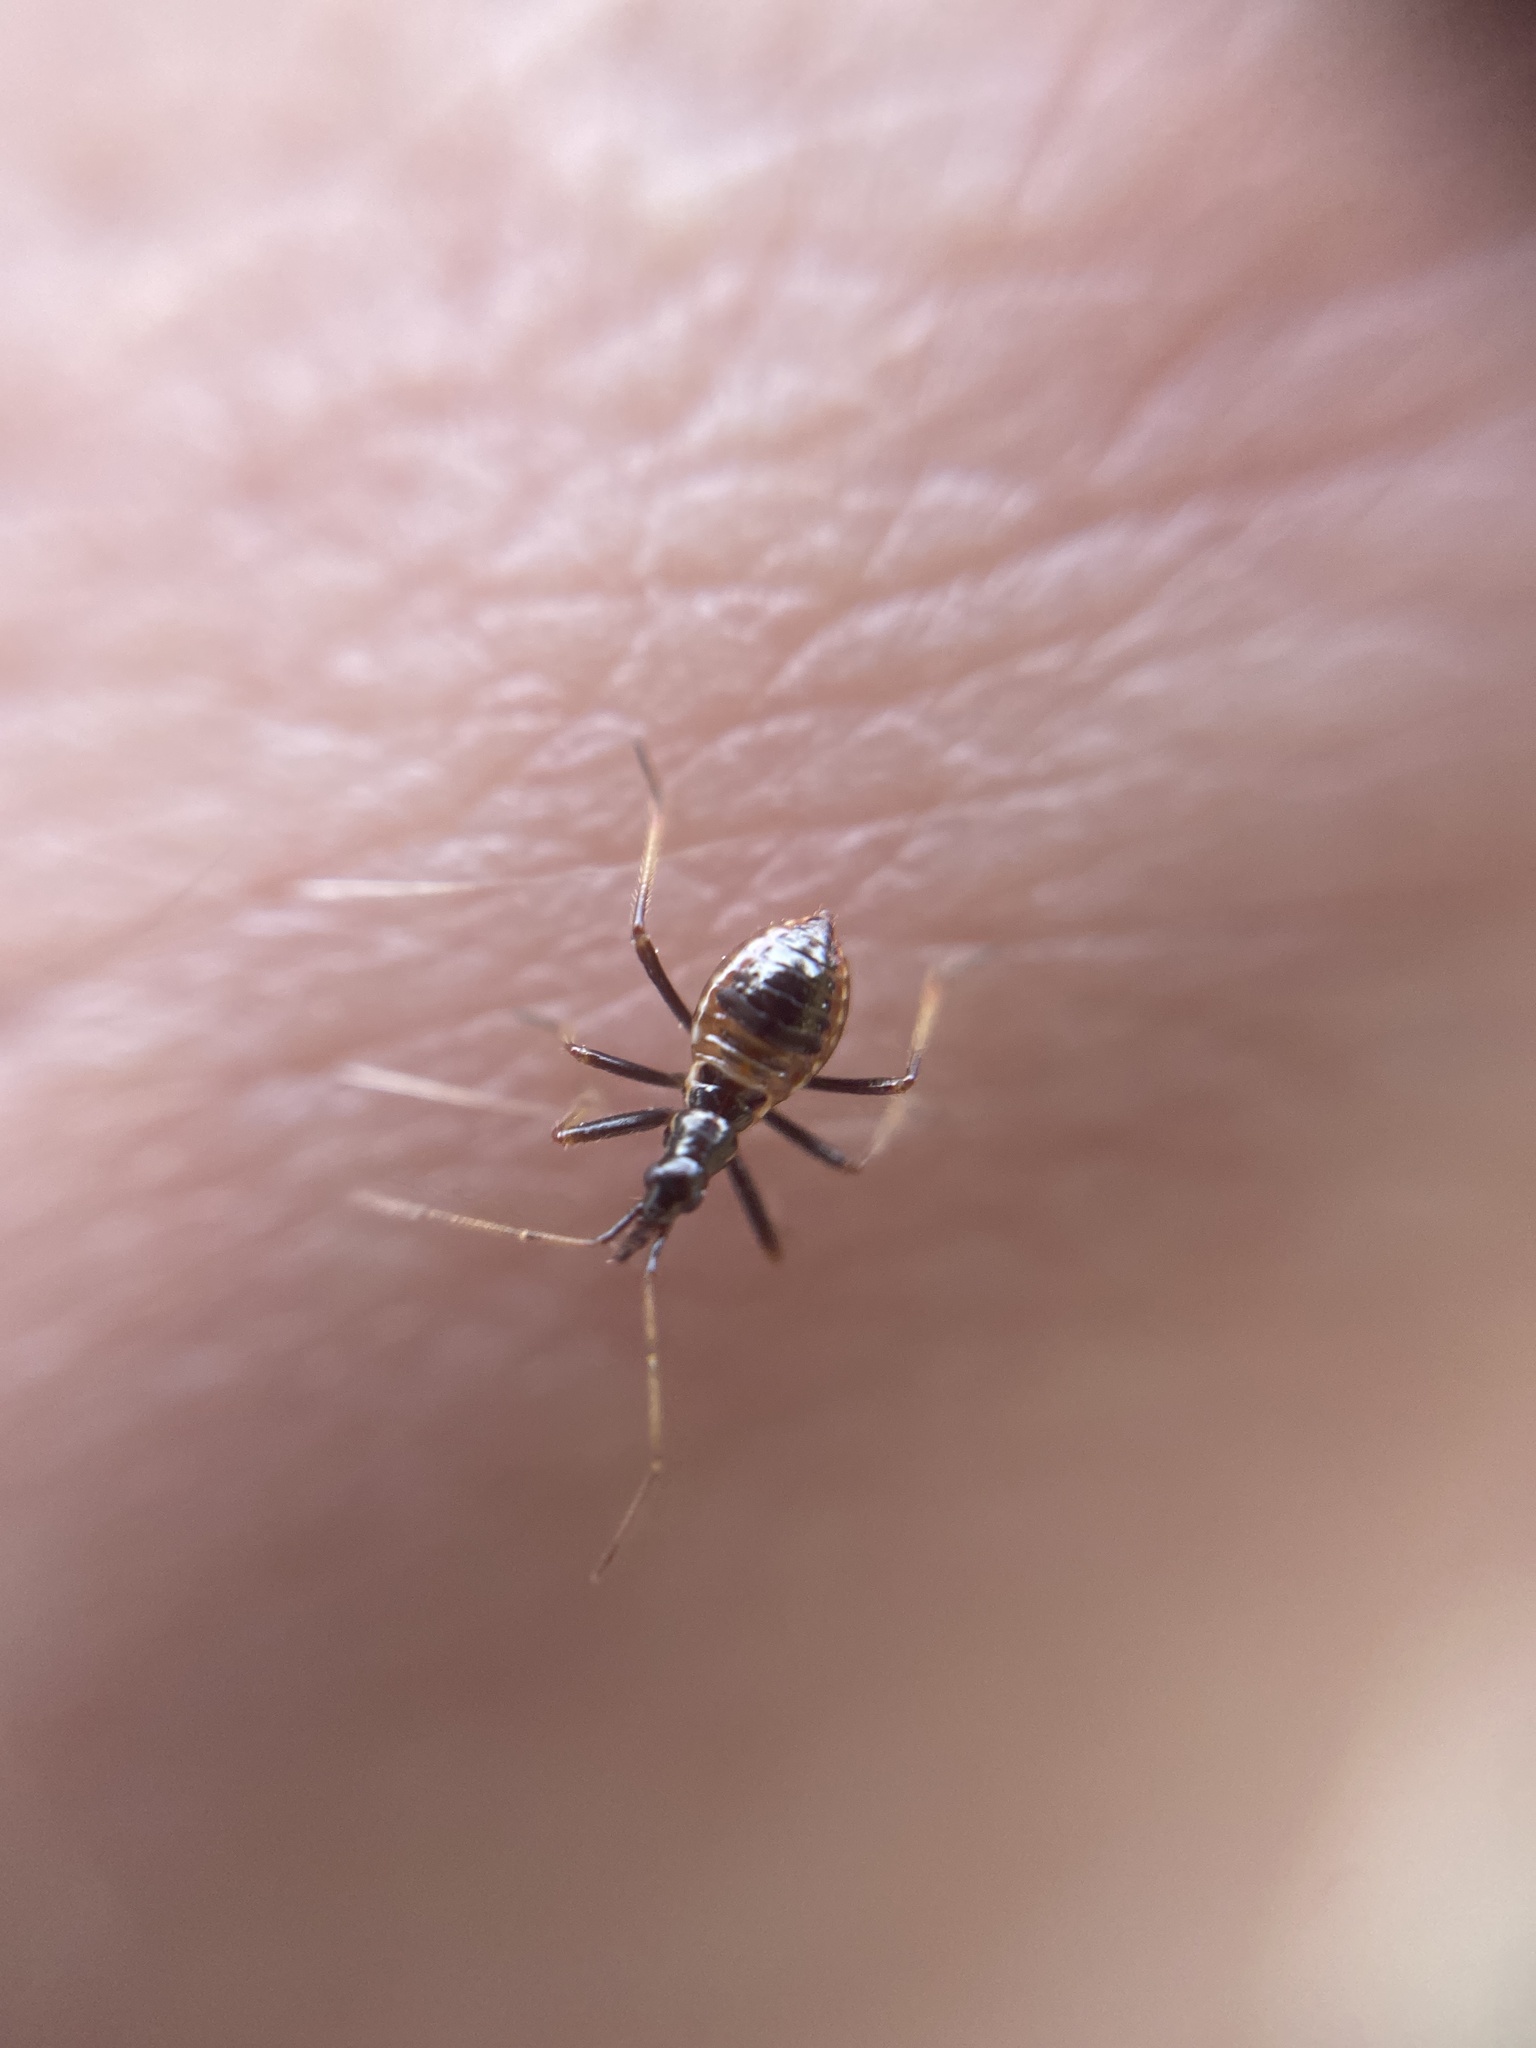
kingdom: Animalia
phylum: Arthropoda
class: Insecta
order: Hemiptera
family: Nabidae
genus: Himacerus
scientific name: Himacerus apterus
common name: Tree damsel bug
